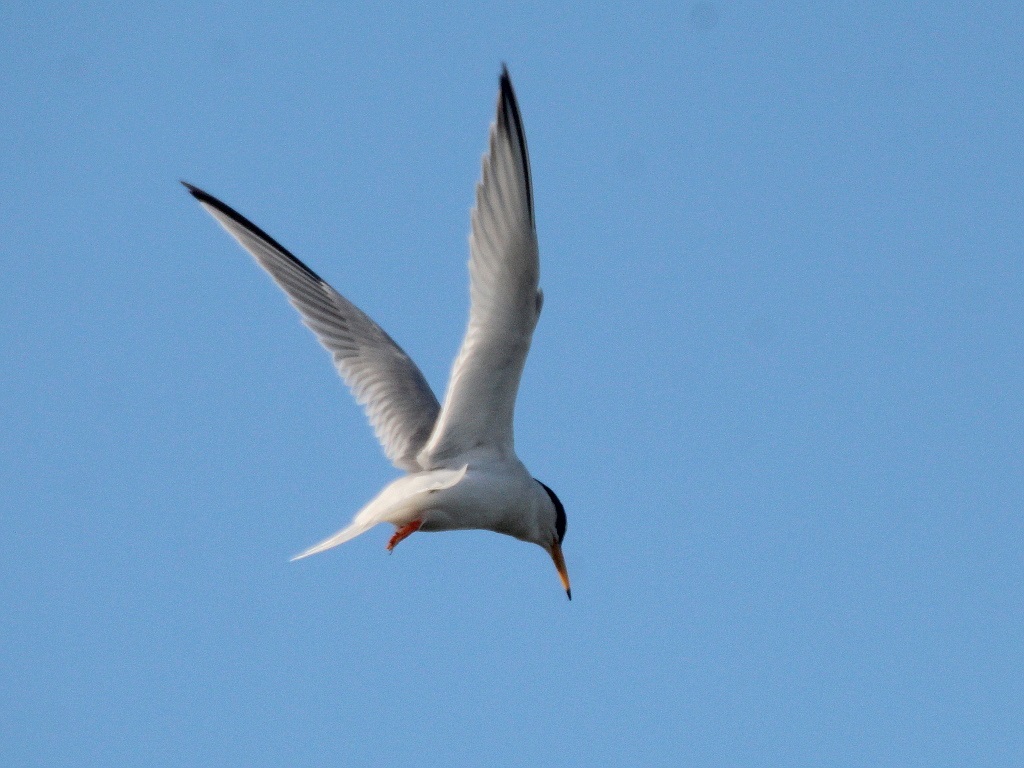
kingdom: Animalia
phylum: Chordata
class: Aves
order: Charadriiformes
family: Laridae
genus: Sternula
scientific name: Sternula albifrons
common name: Little tern
